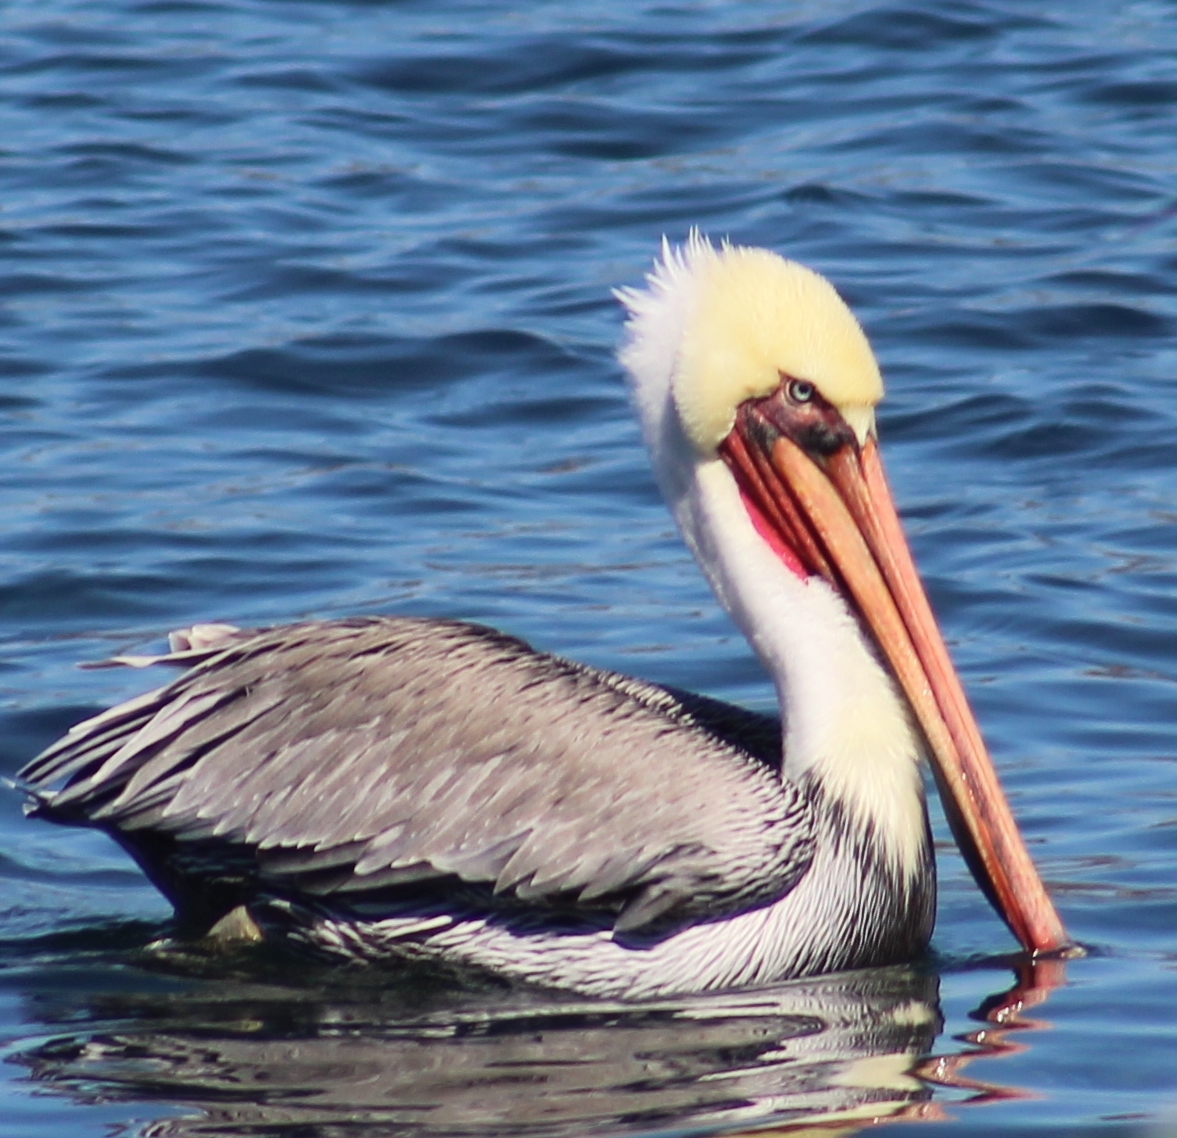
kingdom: Animalia
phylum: Chordata
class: Aves
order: Pelecaniformes
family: Pelecanidae
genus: Pelecanus
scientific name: Pelecanus occidentalis
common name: Brown pelican
